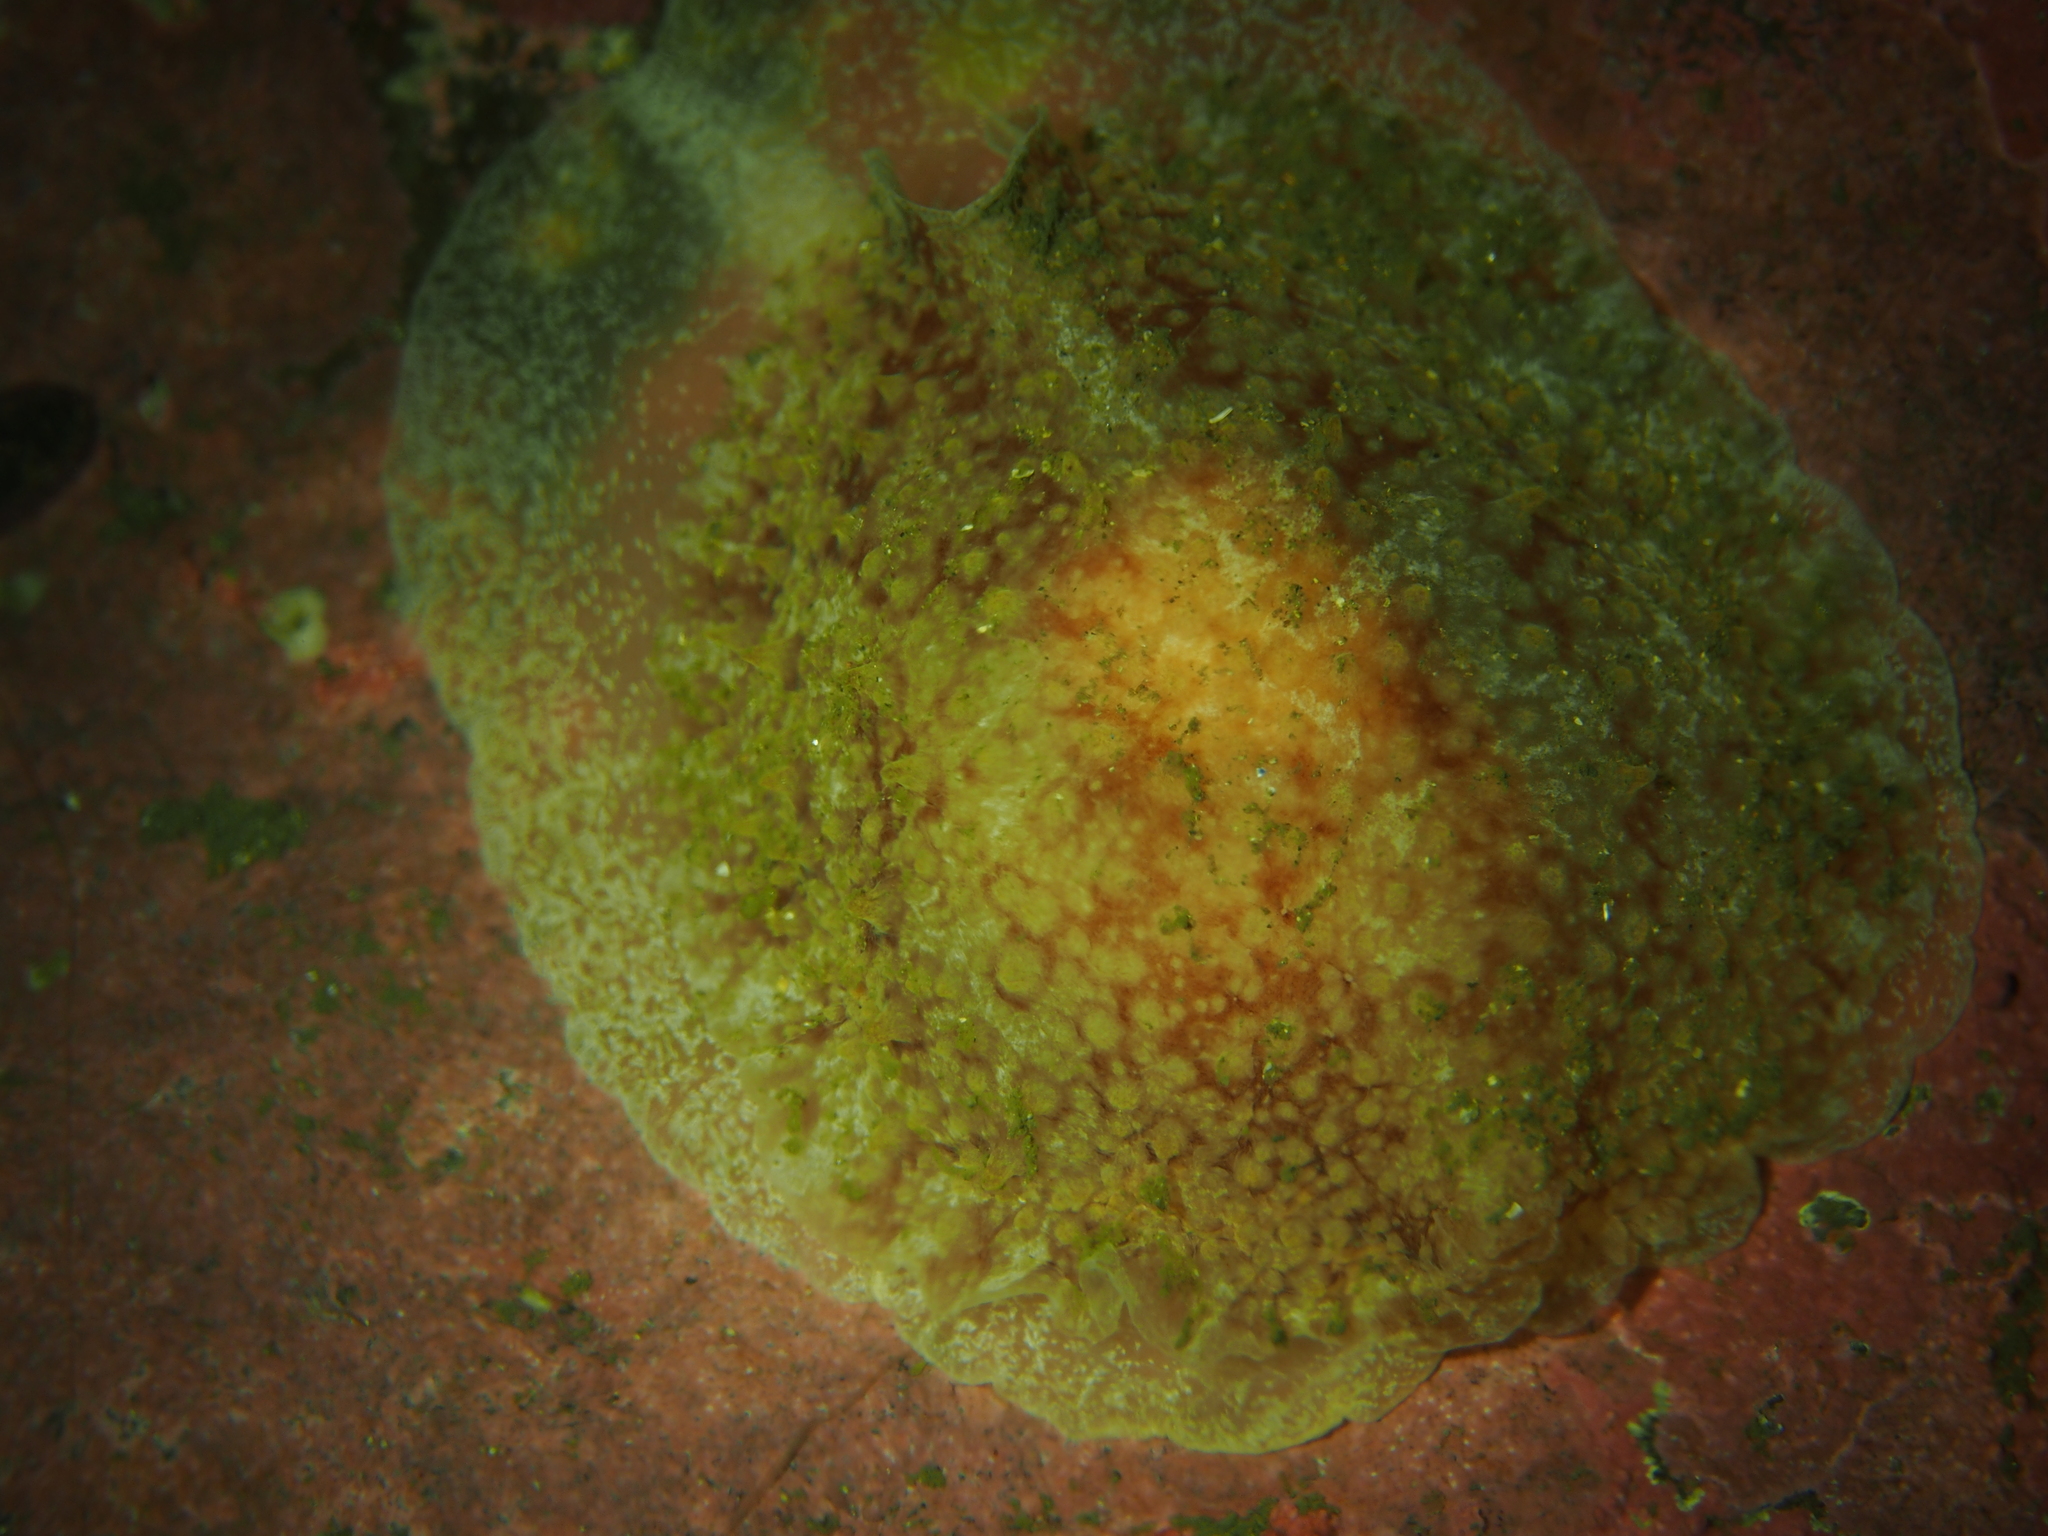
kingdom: Animalia
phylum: Mollusca
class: Gastropoda
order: Pleurobranchida
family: Pleurobranchidae
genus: Pleurobranchus
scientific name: Pleurobranchus membranaceus
